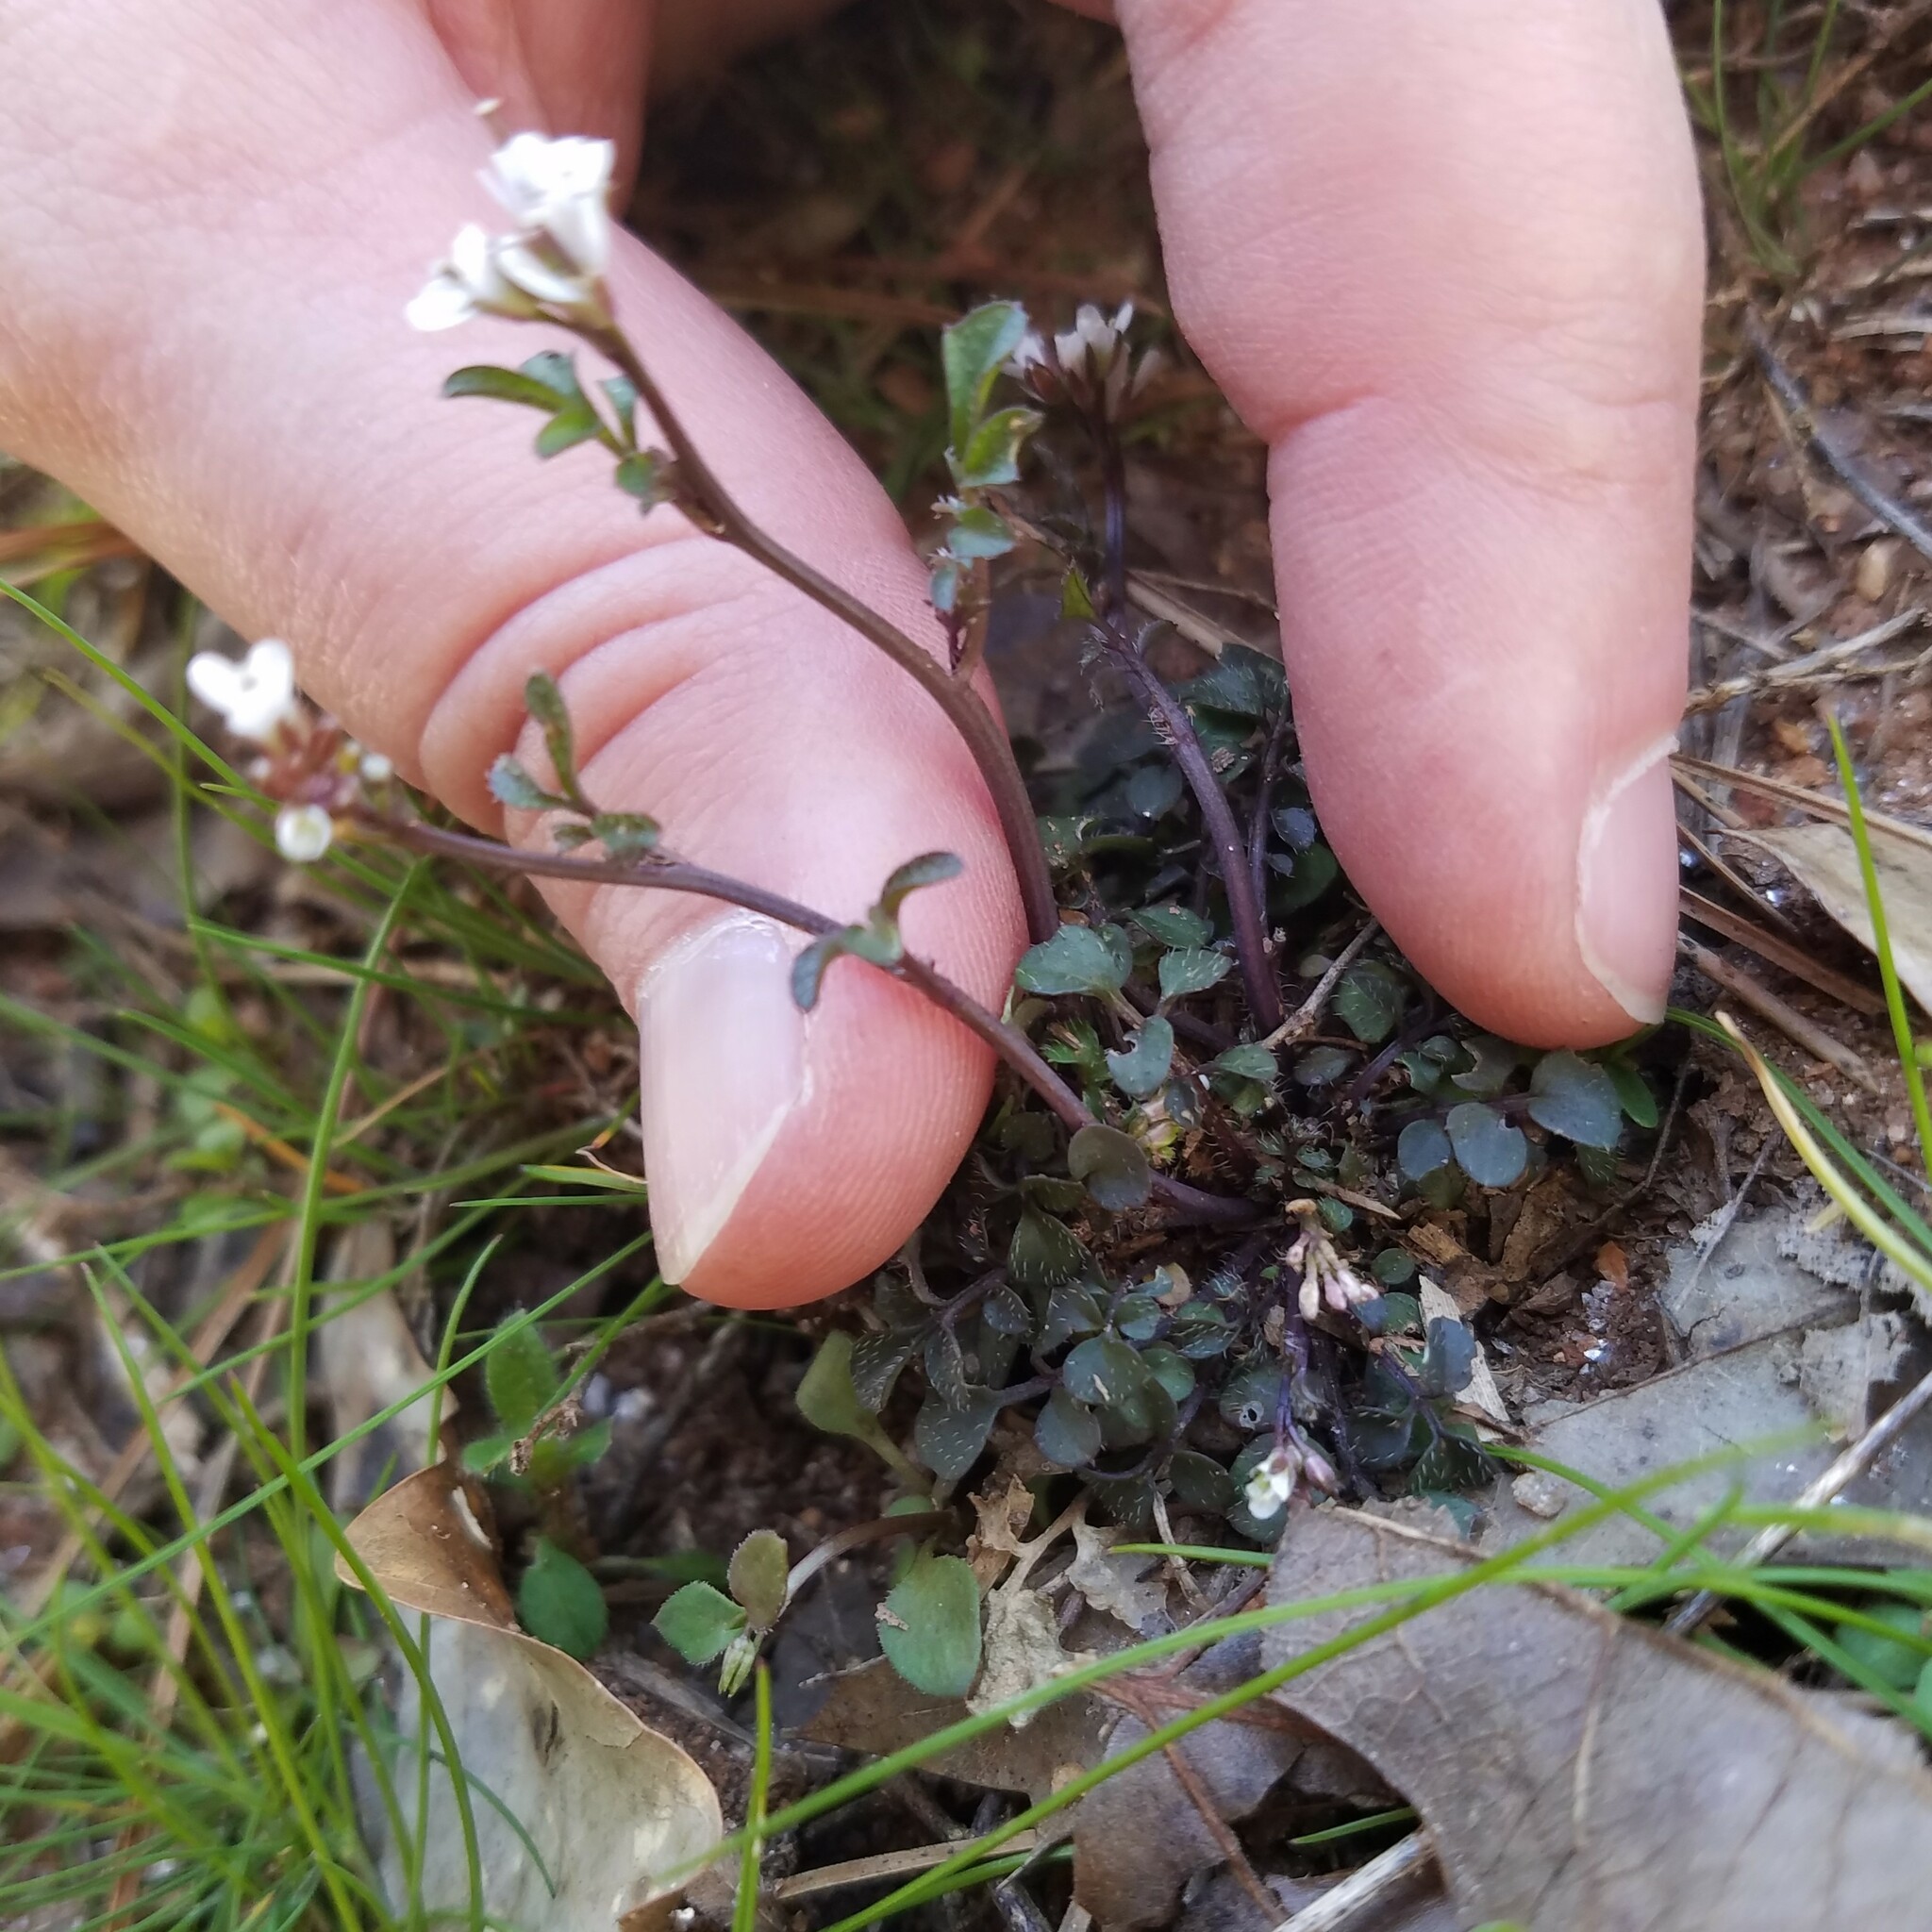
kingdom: Plantae
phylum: Tracheophyta
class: Magnoliopsida
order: Brassicales
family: Brassicaceae
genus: Cardamine
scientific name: Cardamine hirsuta
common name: Hairy bittercress
